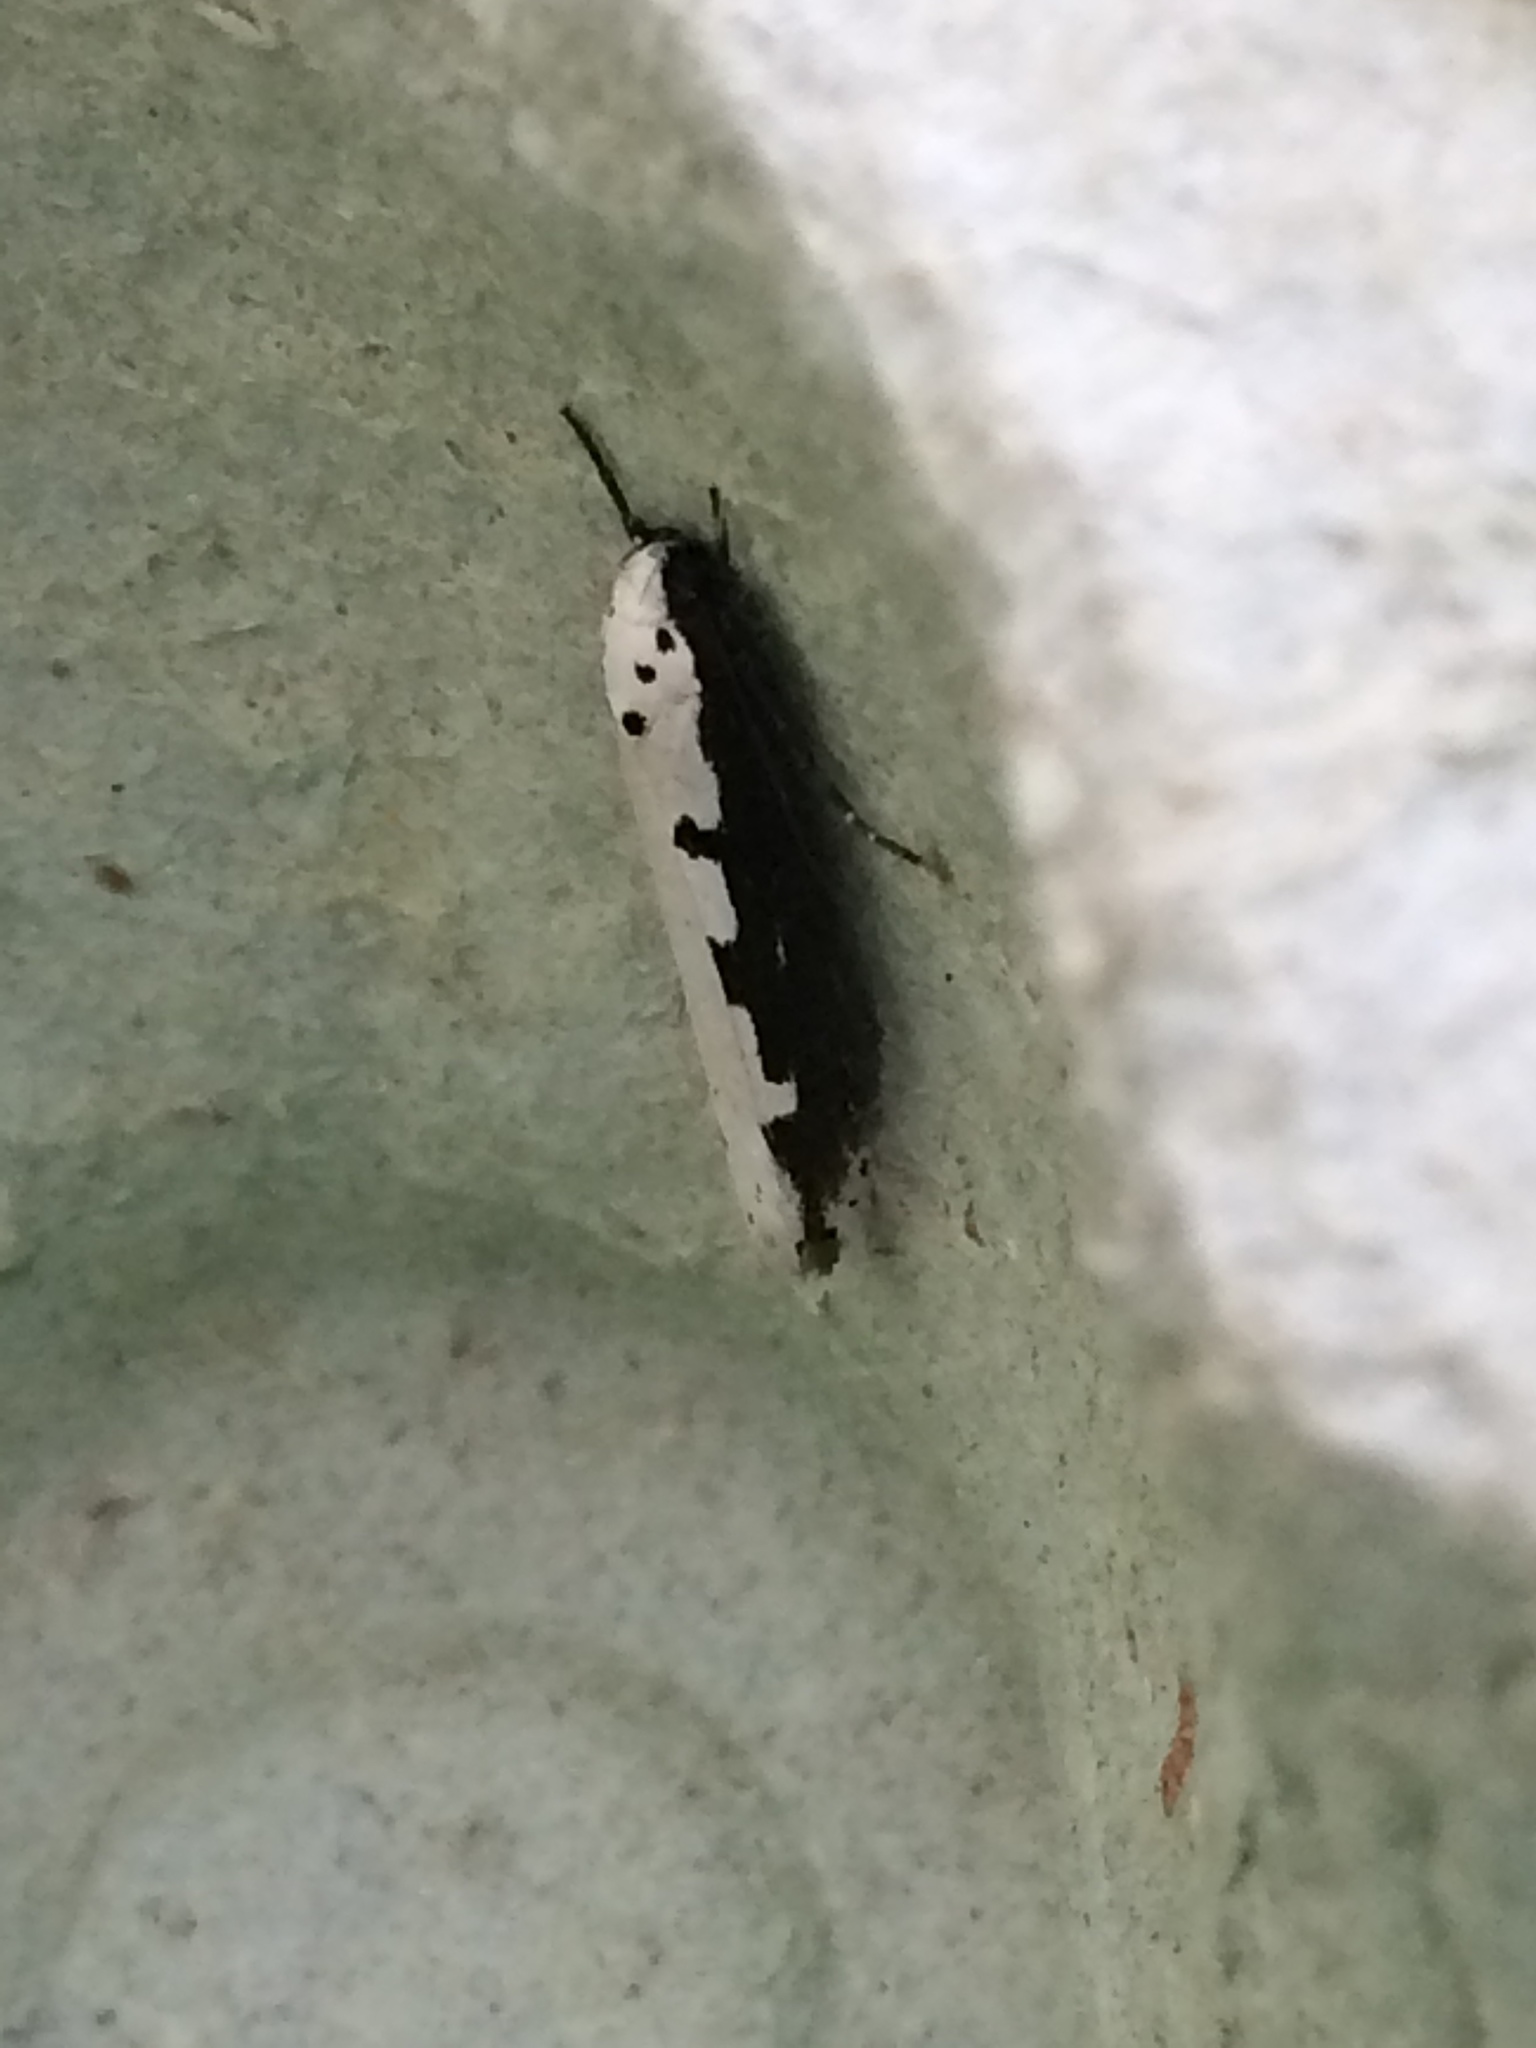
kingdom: Animalia
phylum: Arthropoda
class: Insecta
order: Lepidoptera
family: Ethmiidae
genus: Ethmia
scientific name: Ethmia bipunctella
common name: Bordered ermel
